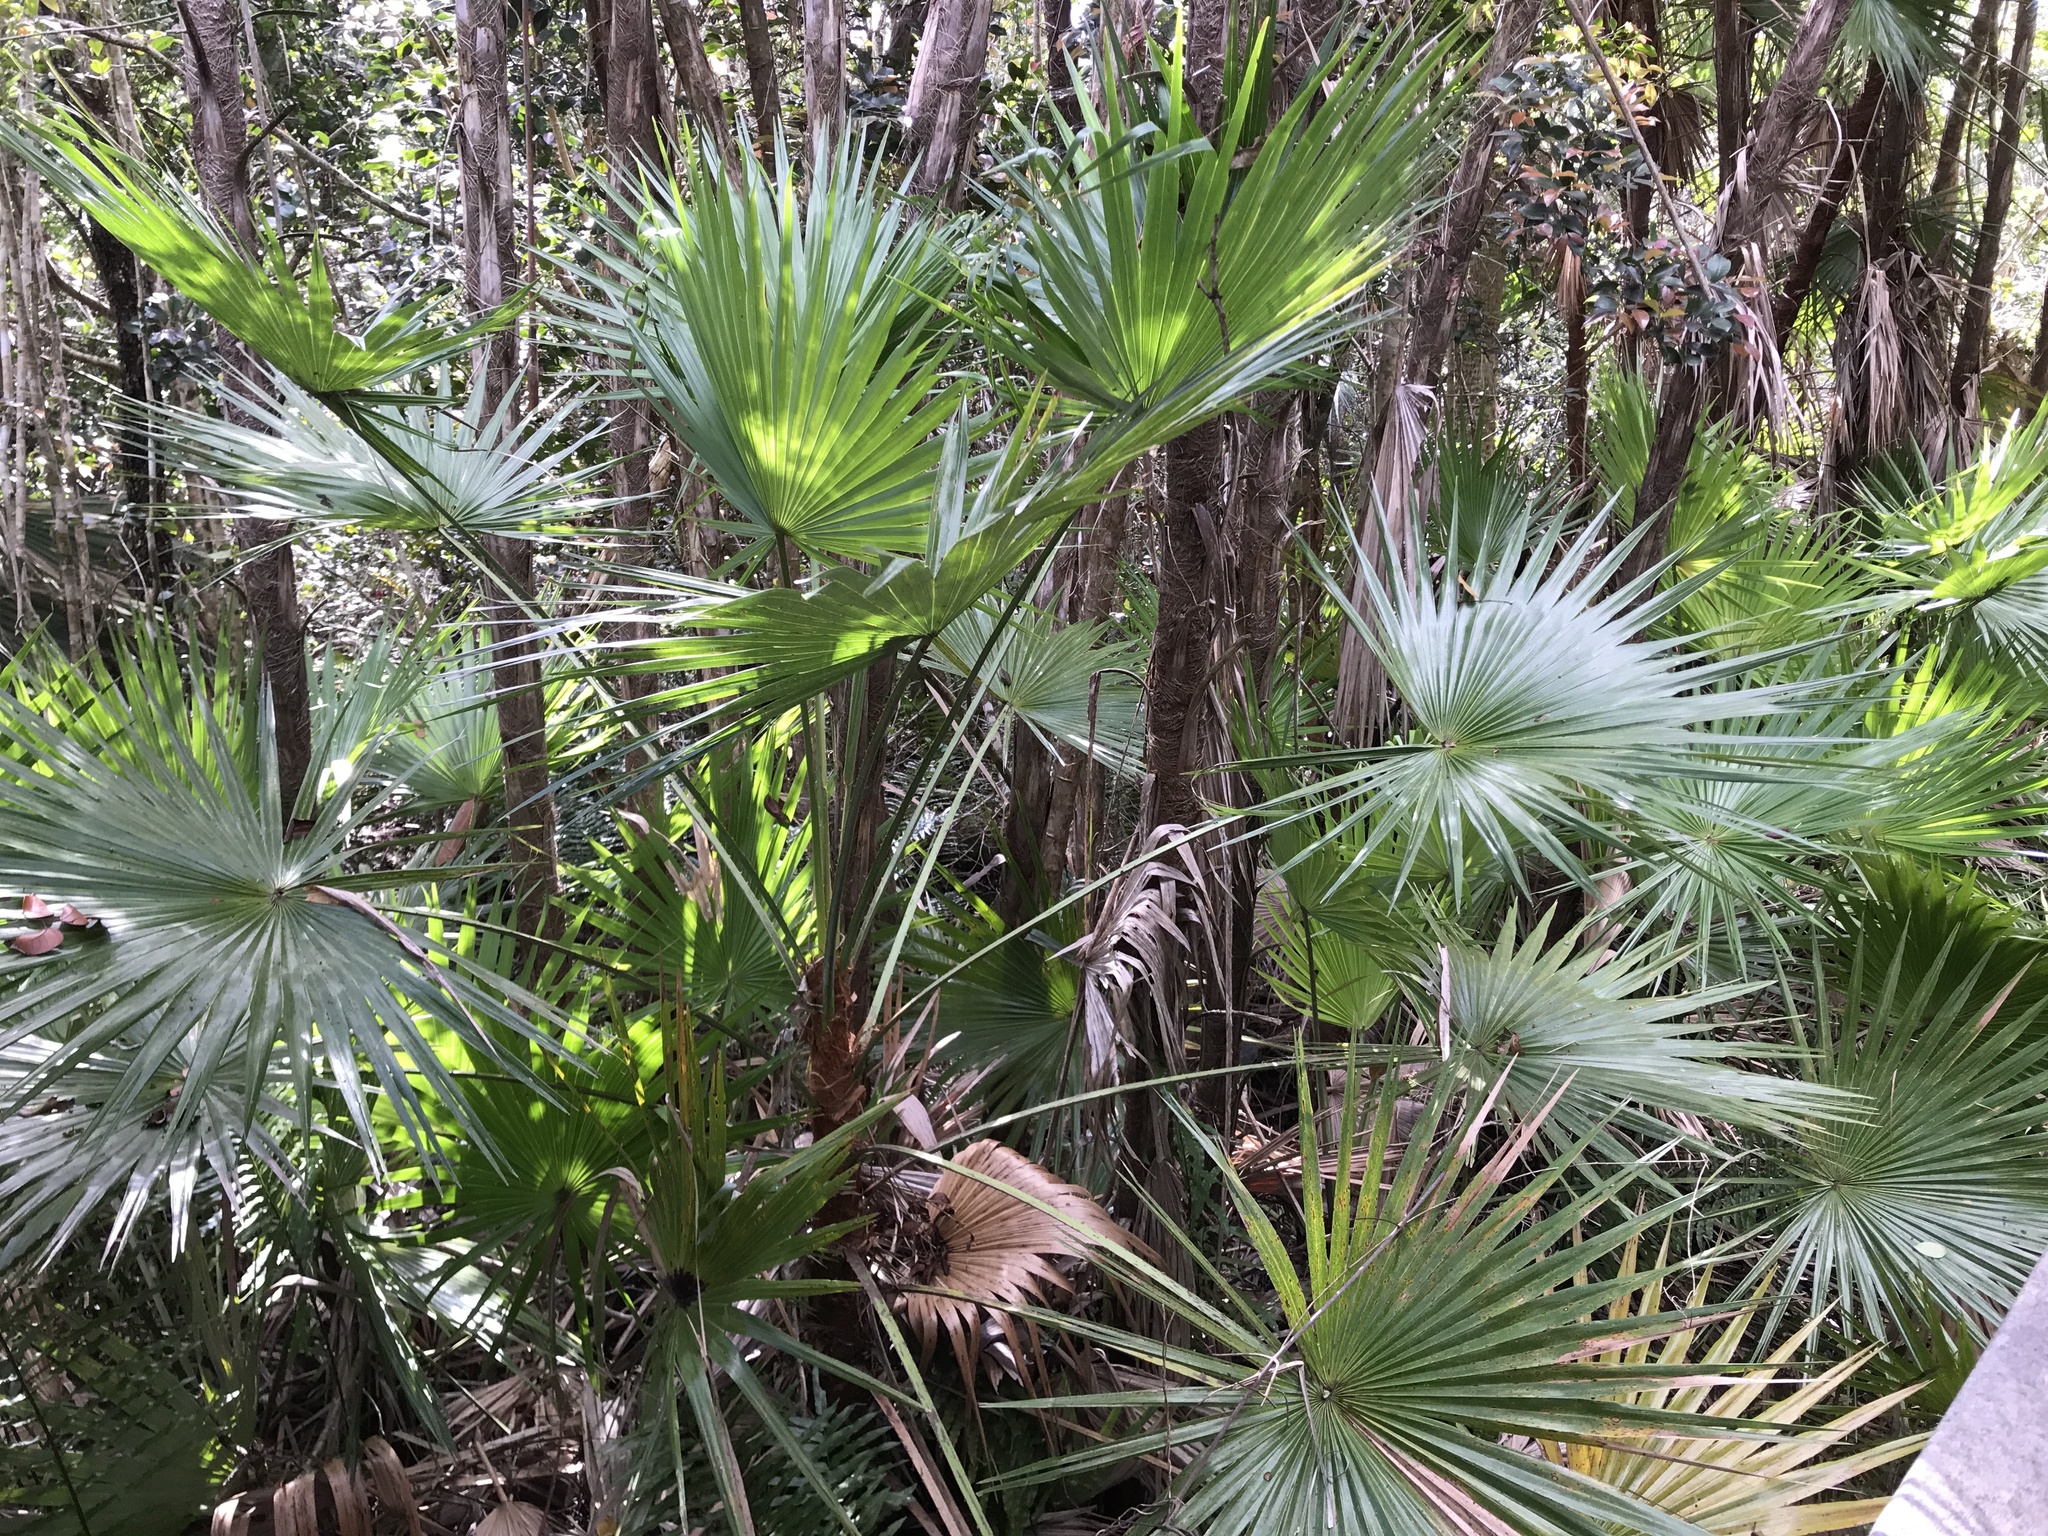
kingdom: Plantae
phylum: Tracheophyta
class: Liliopsida
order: Arecales
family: Arecaceae
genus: Acoelorraphe
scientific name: Acoelorraphe wrightii
